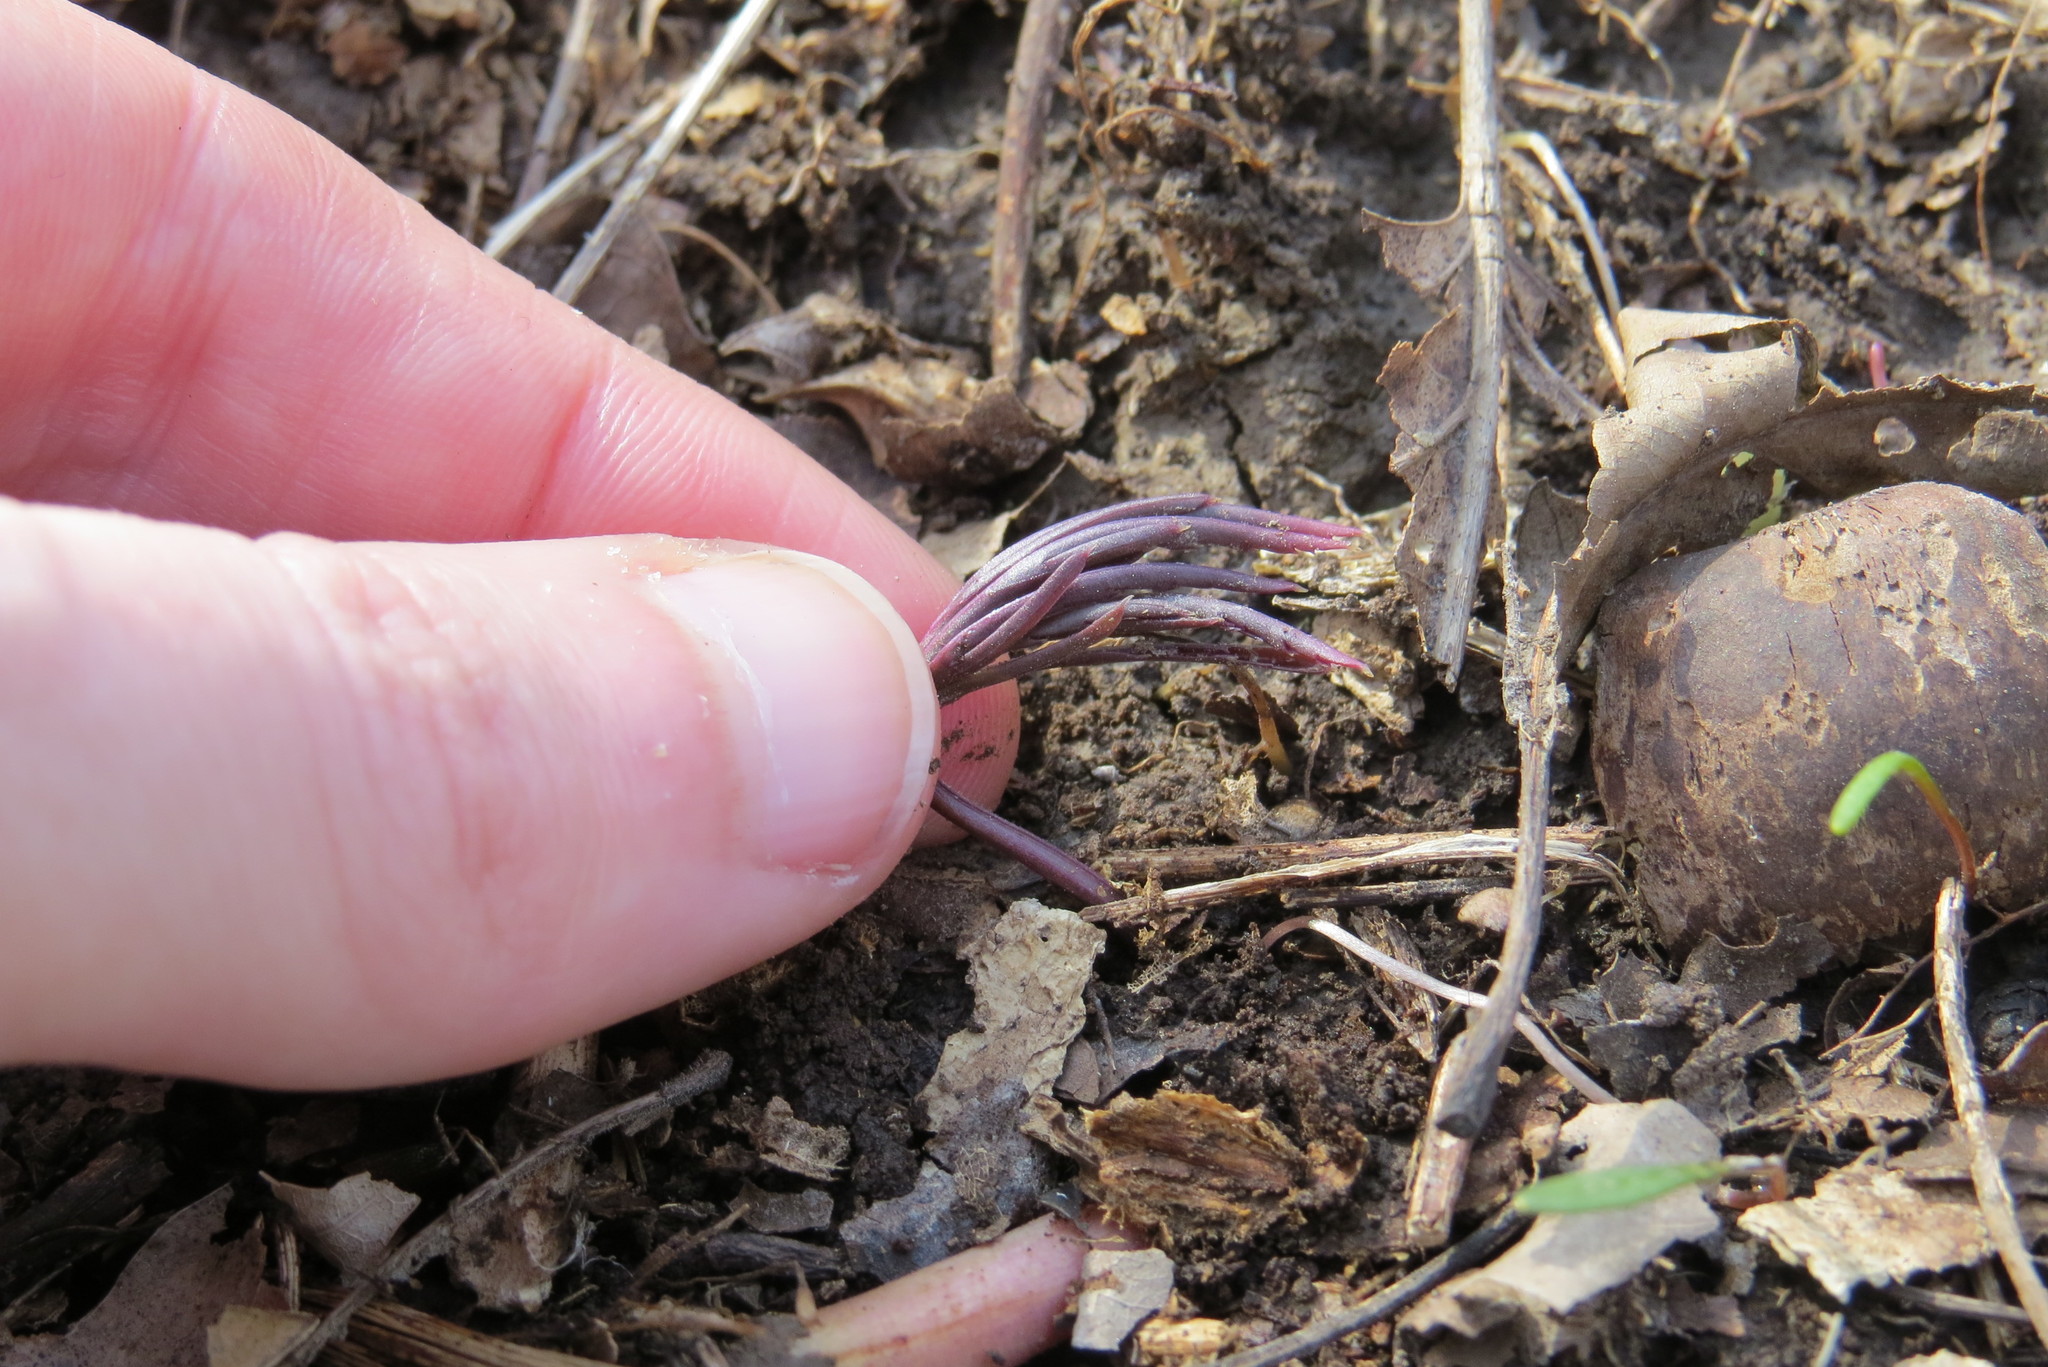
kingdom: Plantae
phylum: Tracheophyta
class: Magnoliopsida
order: Brassicales
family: Brassicaceae
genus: Cardamine
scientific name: Cardamine concatenata
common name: Cut-leaf toothcup
